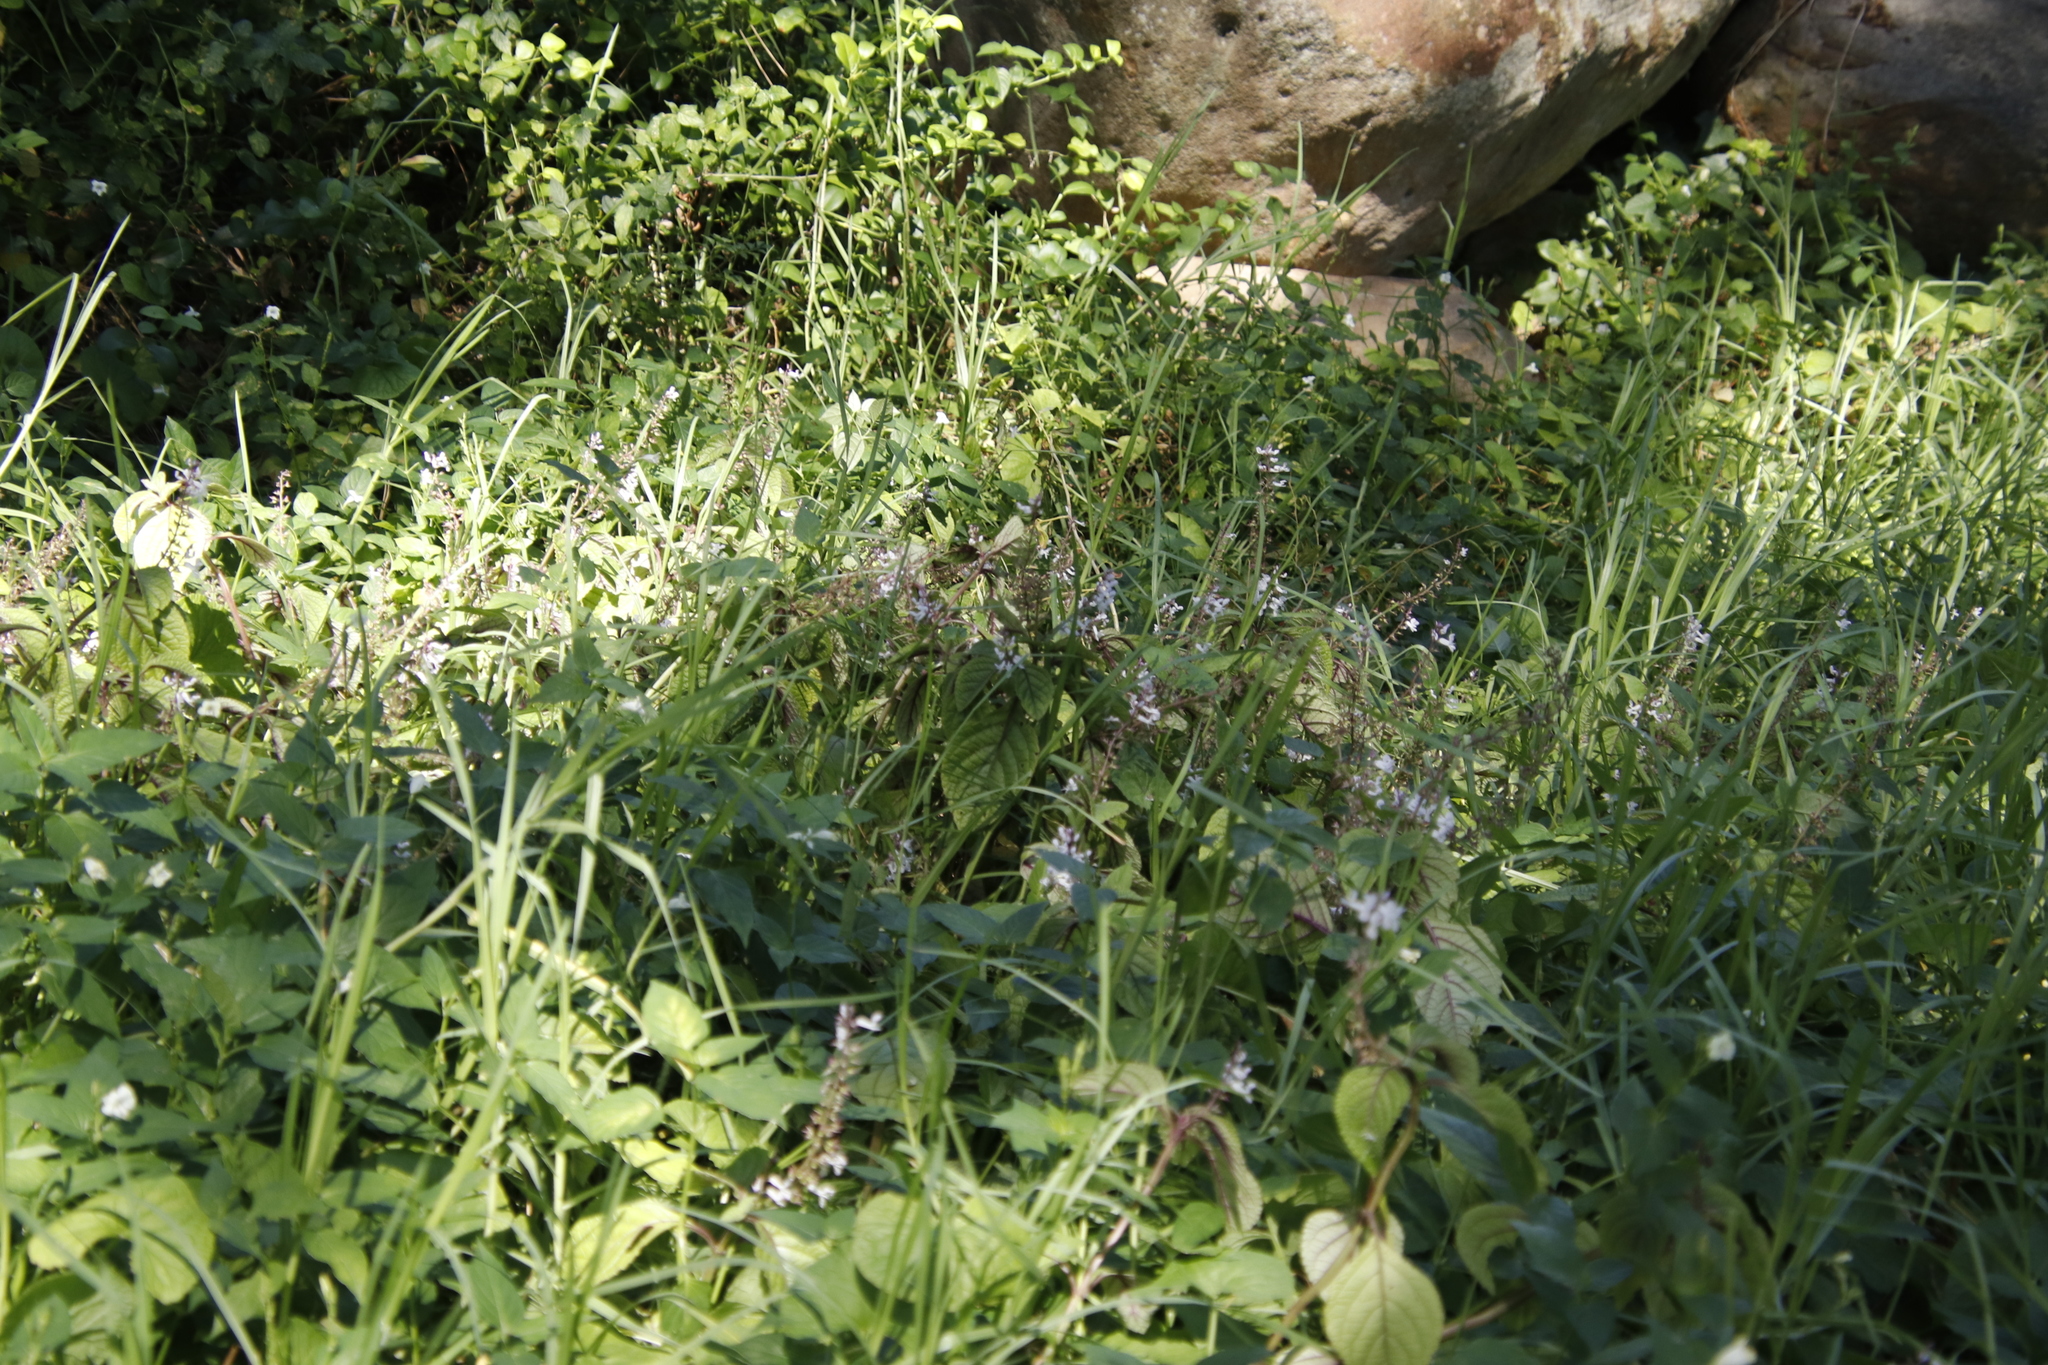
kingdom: Plantae
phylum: Tracheophyta
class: Magnoliopsida
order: Lamiales
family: Lamiaceae
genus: Plectranthus
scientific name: Plectranthus ciliatus
